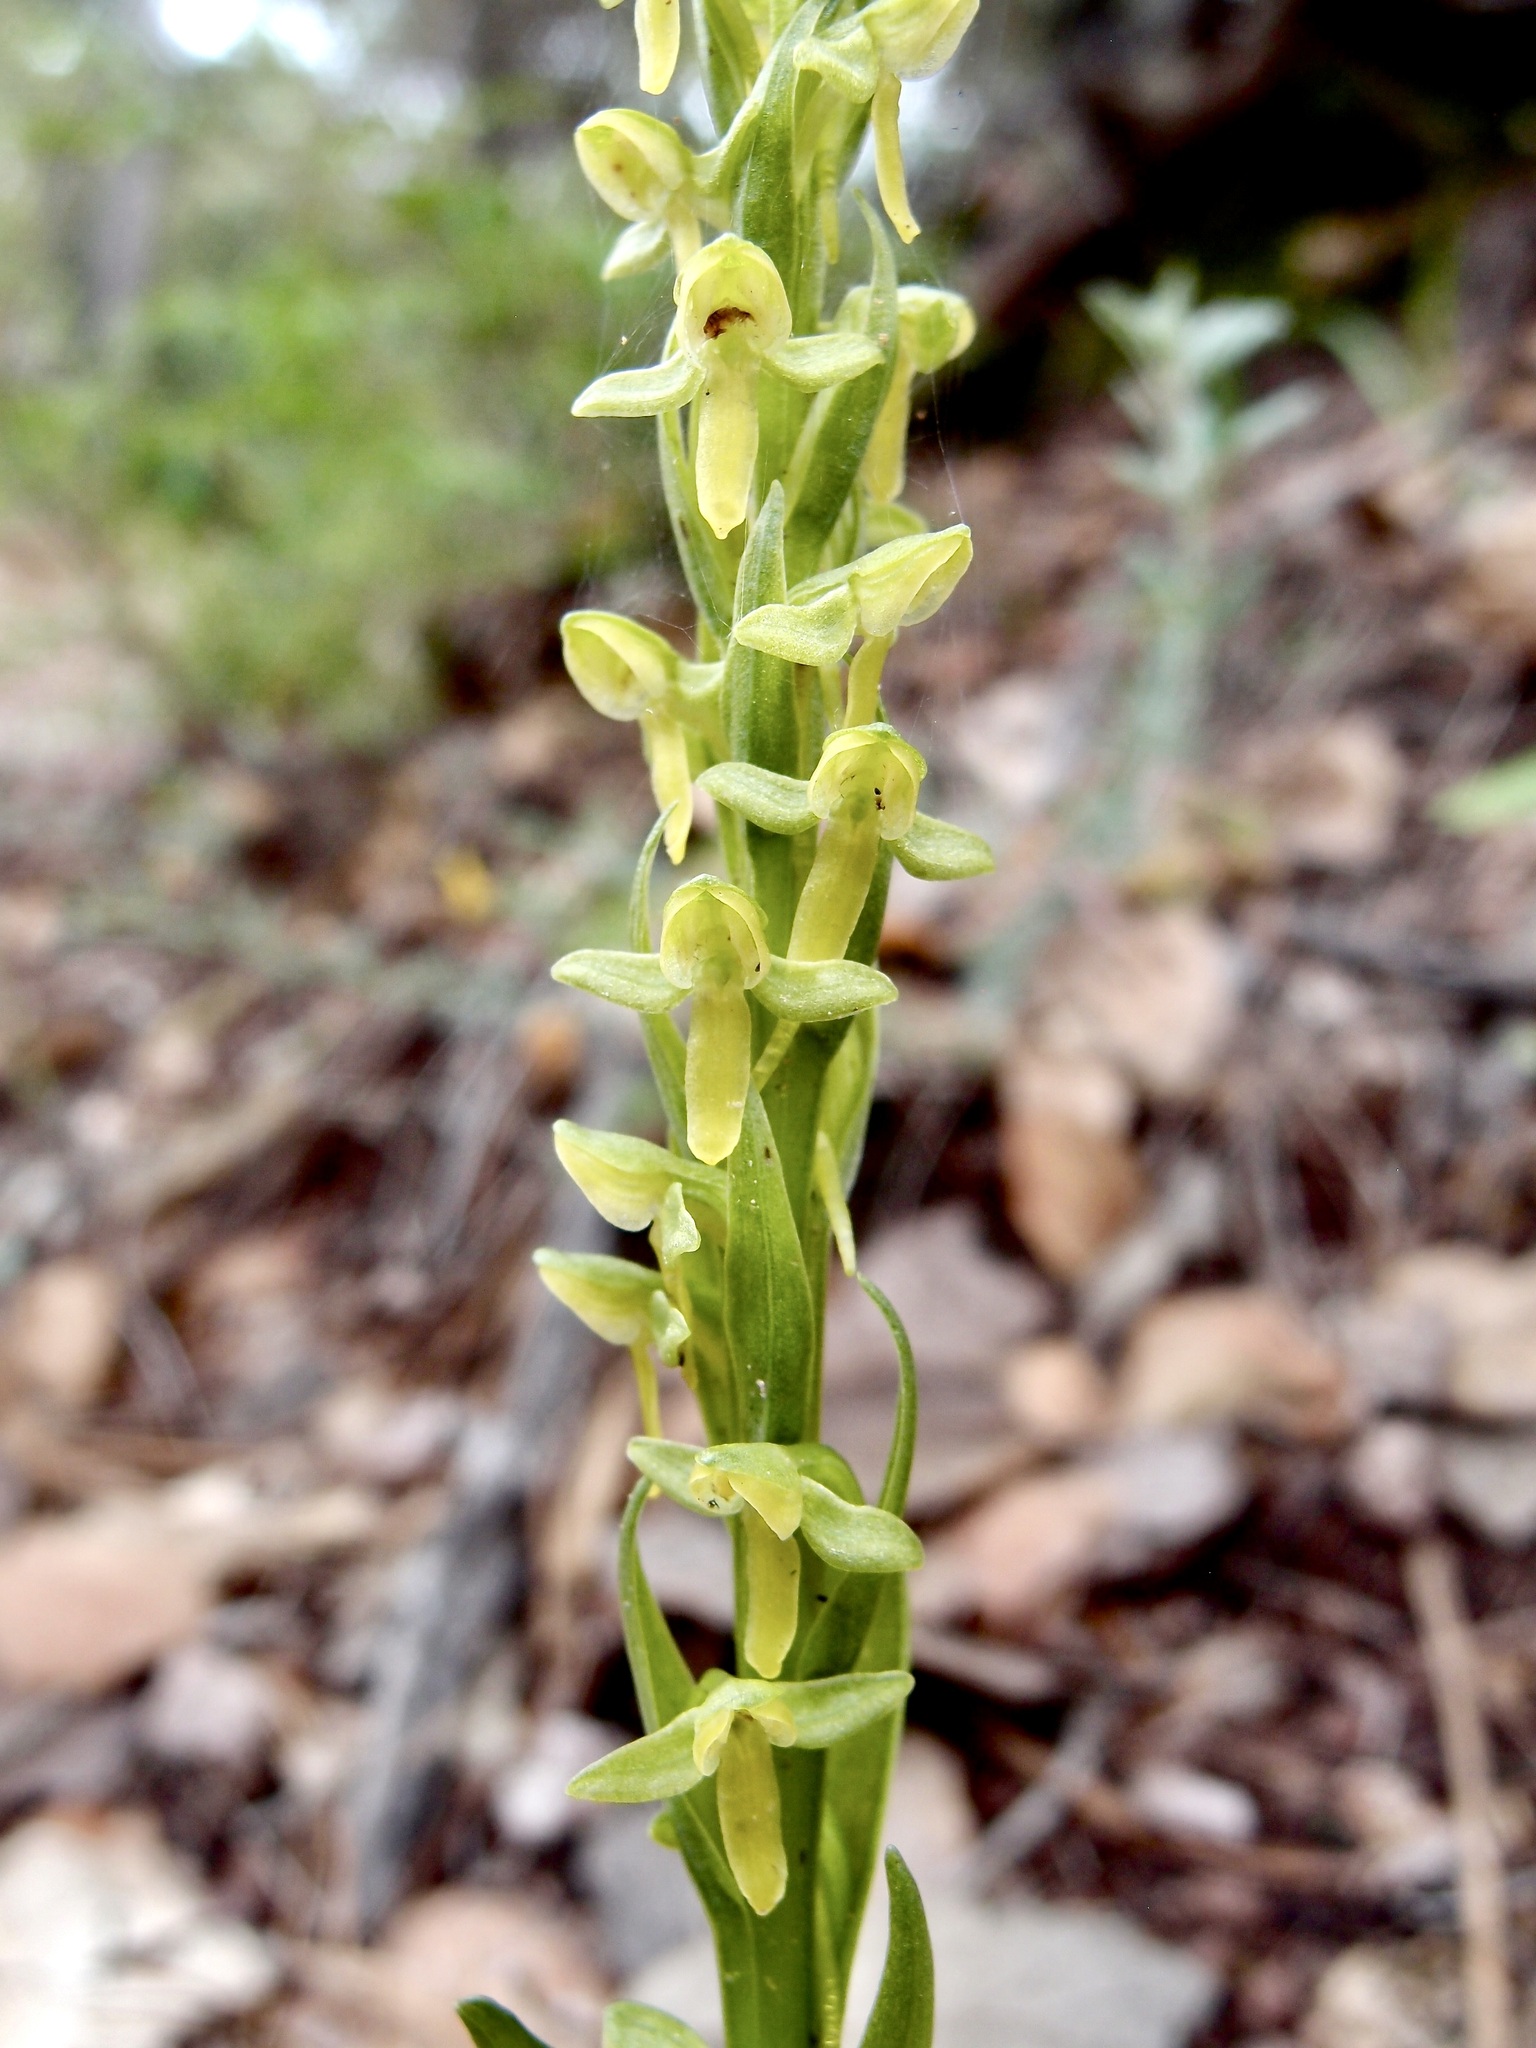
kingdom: Plantae
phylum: Tracheophyta
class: Liliopsida
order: Asparagales
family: Orchidaceae
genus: Platanthera
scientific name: Platanthera brevifolia
